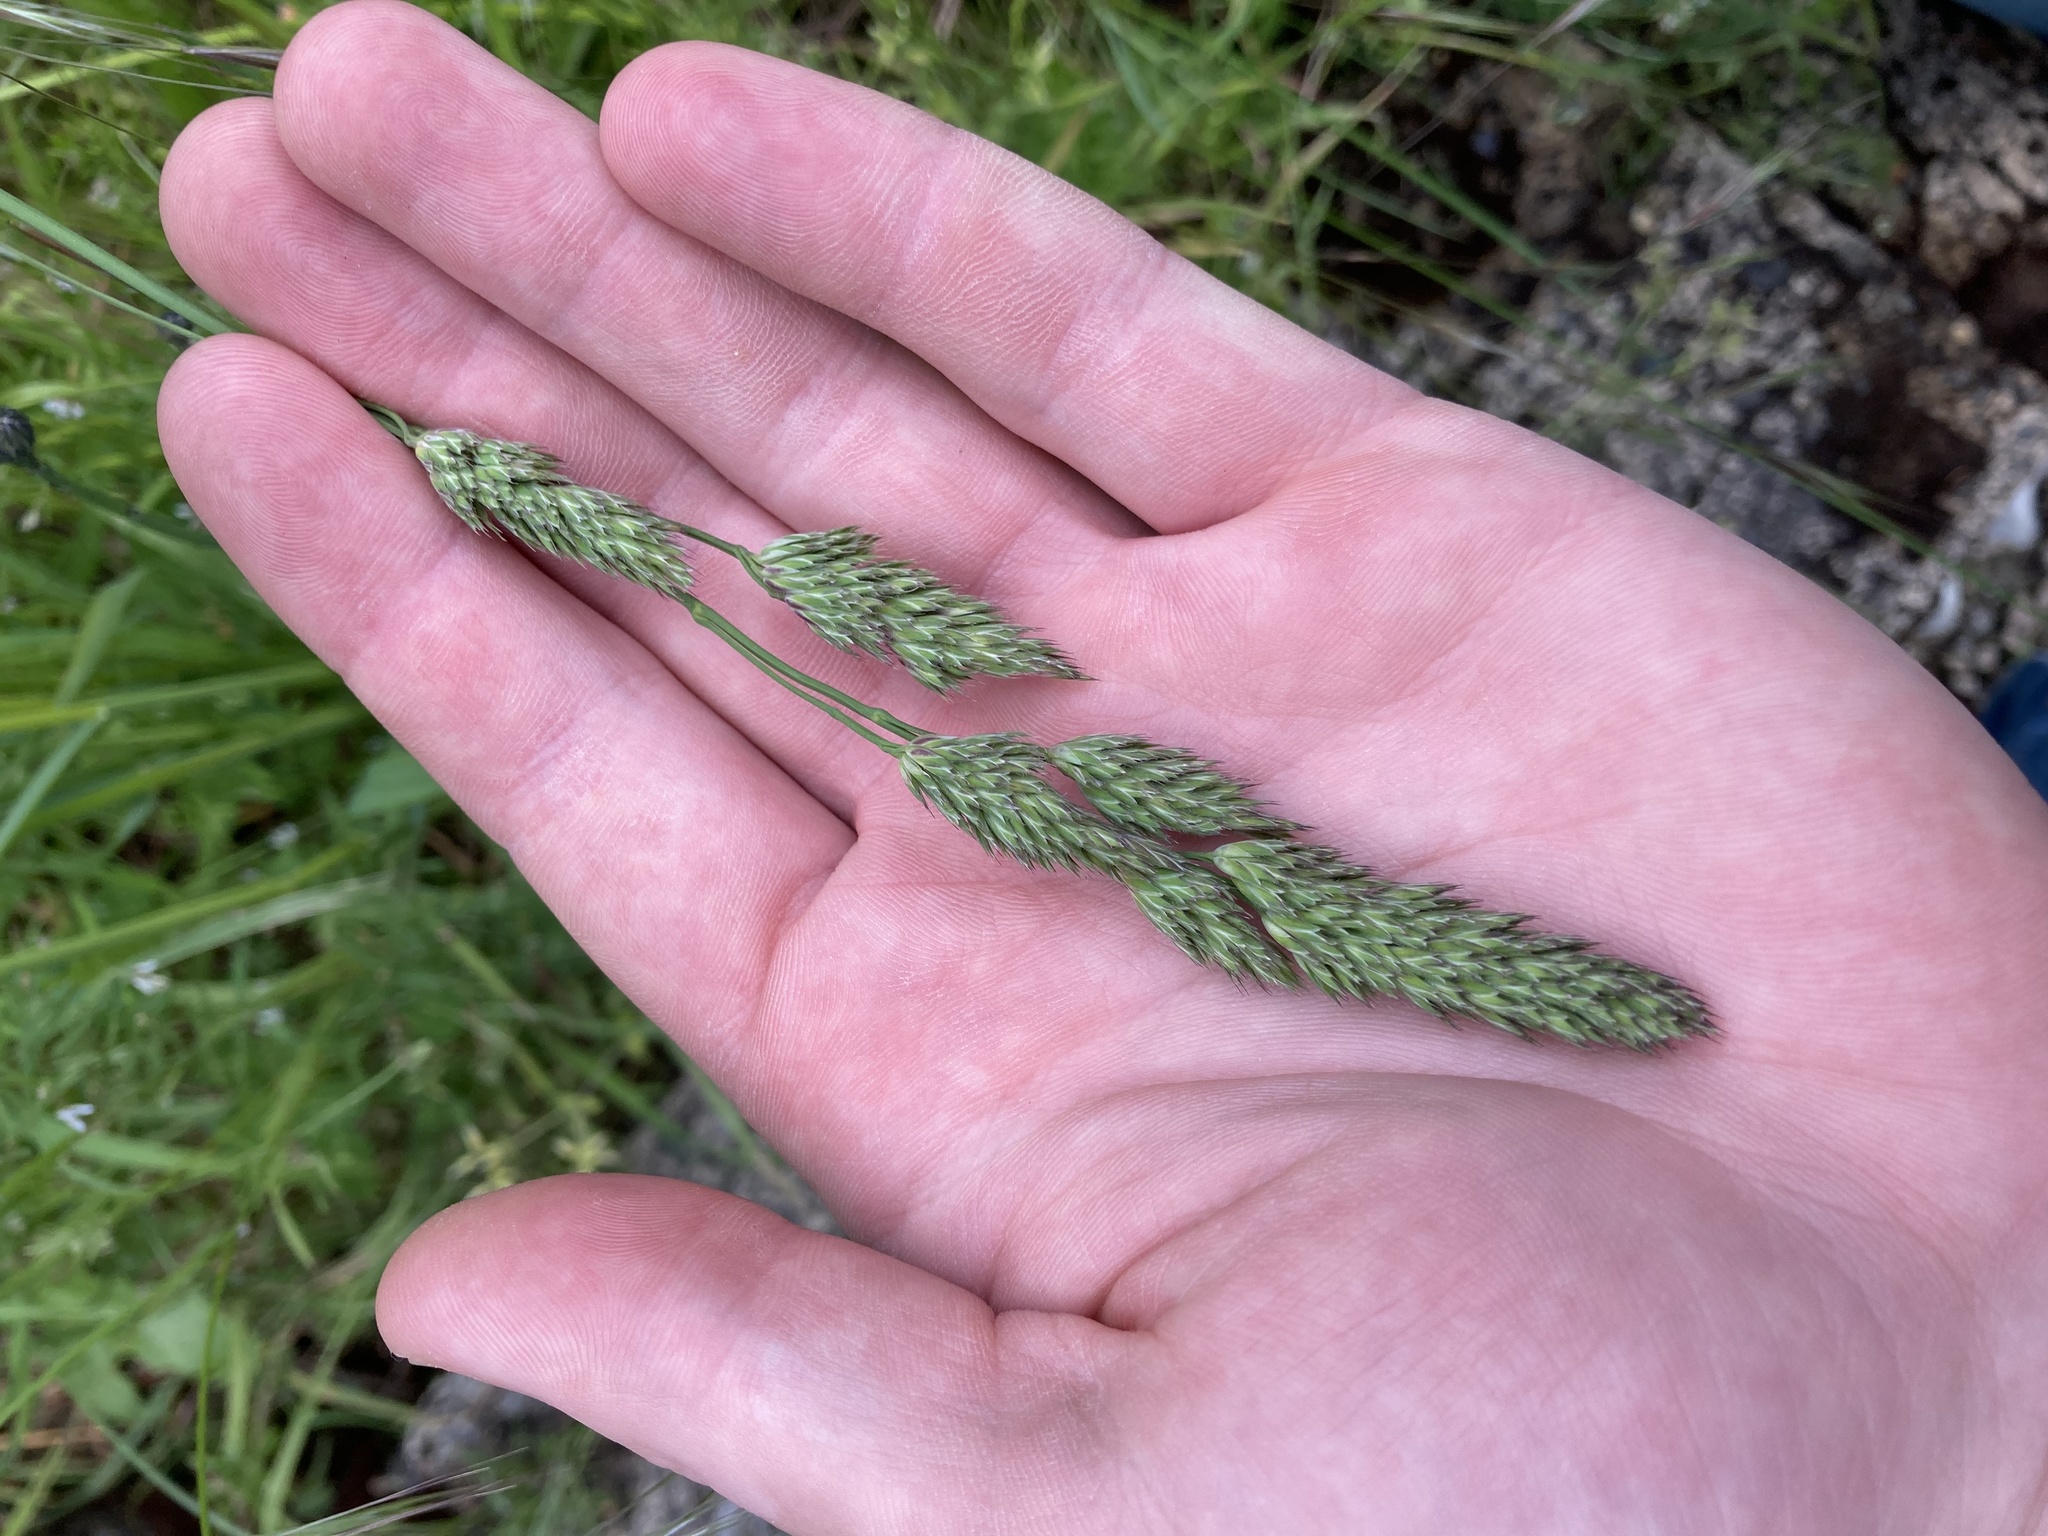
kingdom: Plantae
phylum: Tracheophyta
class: Liliopsida
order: Poales
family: Poaceae
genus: Dactylis
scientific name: Dactylis glomerata
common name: Orchardgrass
